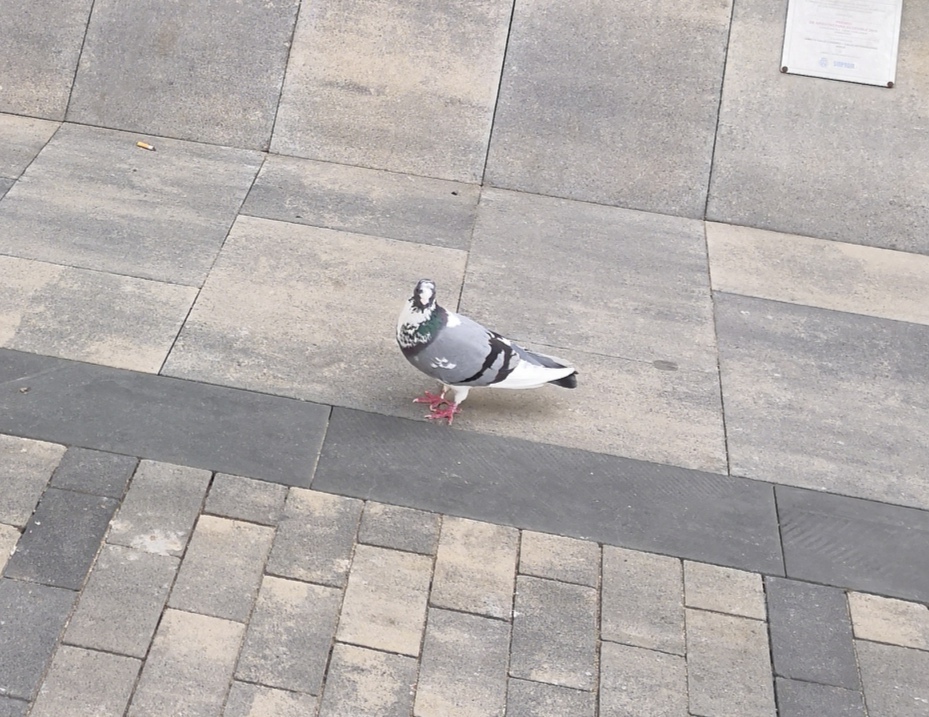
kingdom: Animalia
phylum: Chordata
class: Aves
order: Columbiformes
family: Columbidae
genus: Columba
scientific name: Columba livia
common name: Rock pigeon
